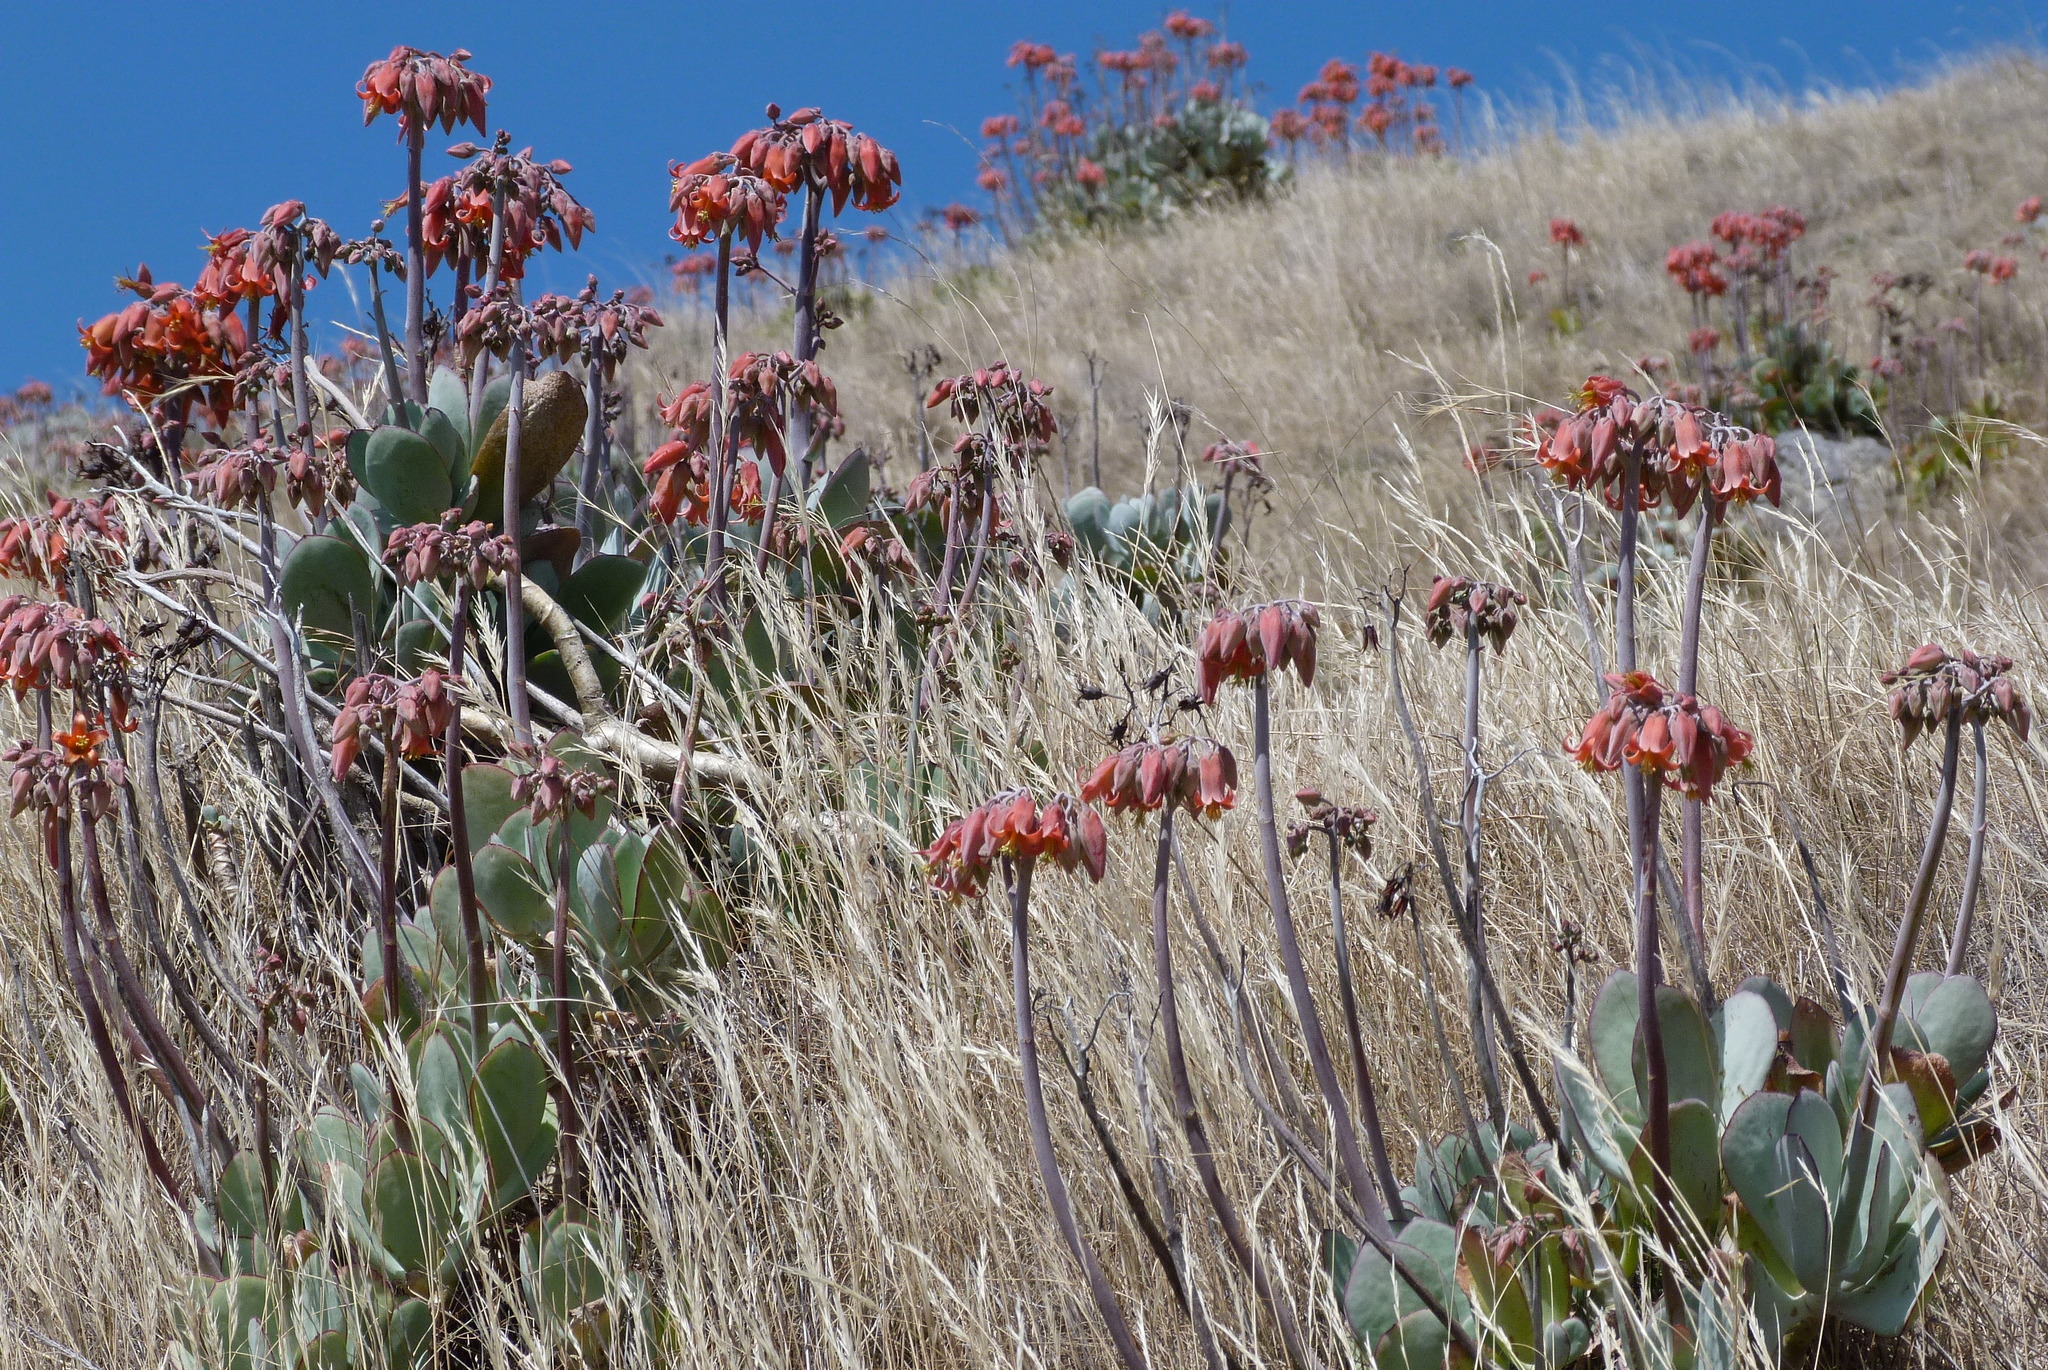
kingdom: Plantae
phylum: Tracheophyta
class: Magnoliopsida
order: Saxifragales
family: Crassulaceae
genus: Cotyledon
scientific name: Cotyledon orbiculata
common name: Pig's ear
